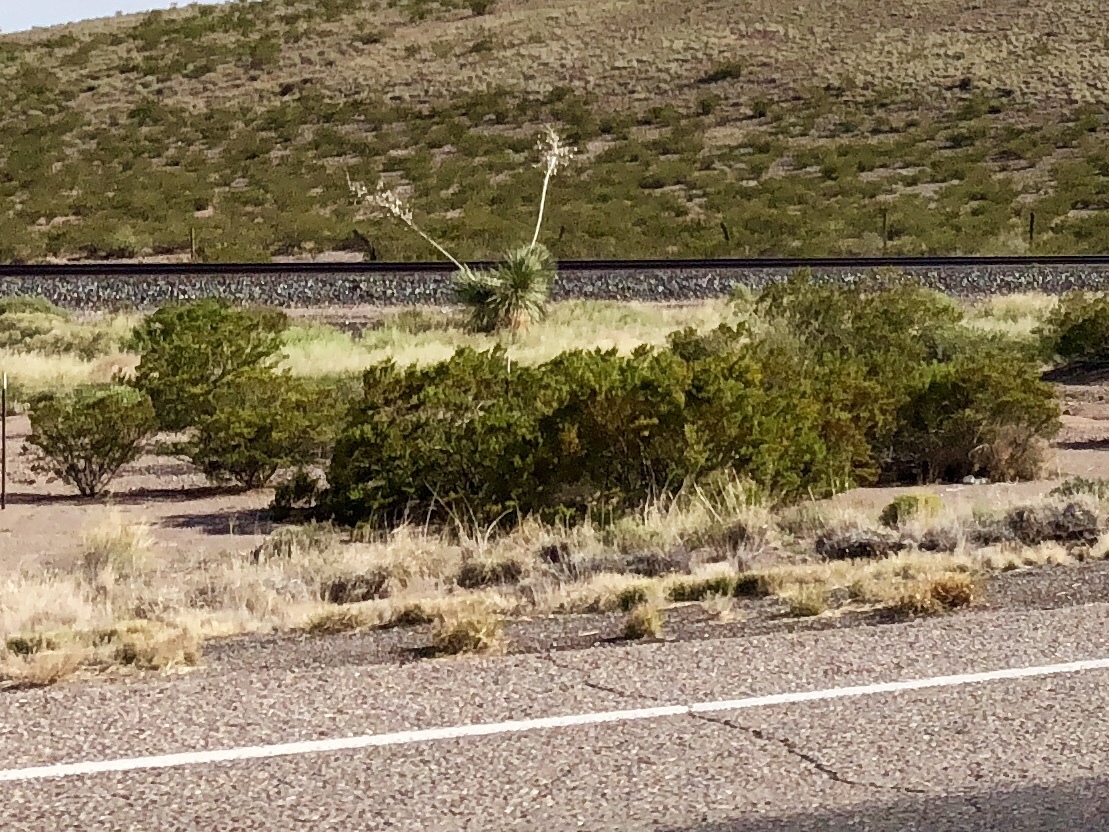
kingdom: Plantae
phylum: Tracheophyta
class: Magnoliopsida
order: Zygophyllales
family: Zygophyllaceae
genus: Larrea
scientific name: Larrea tridentata
